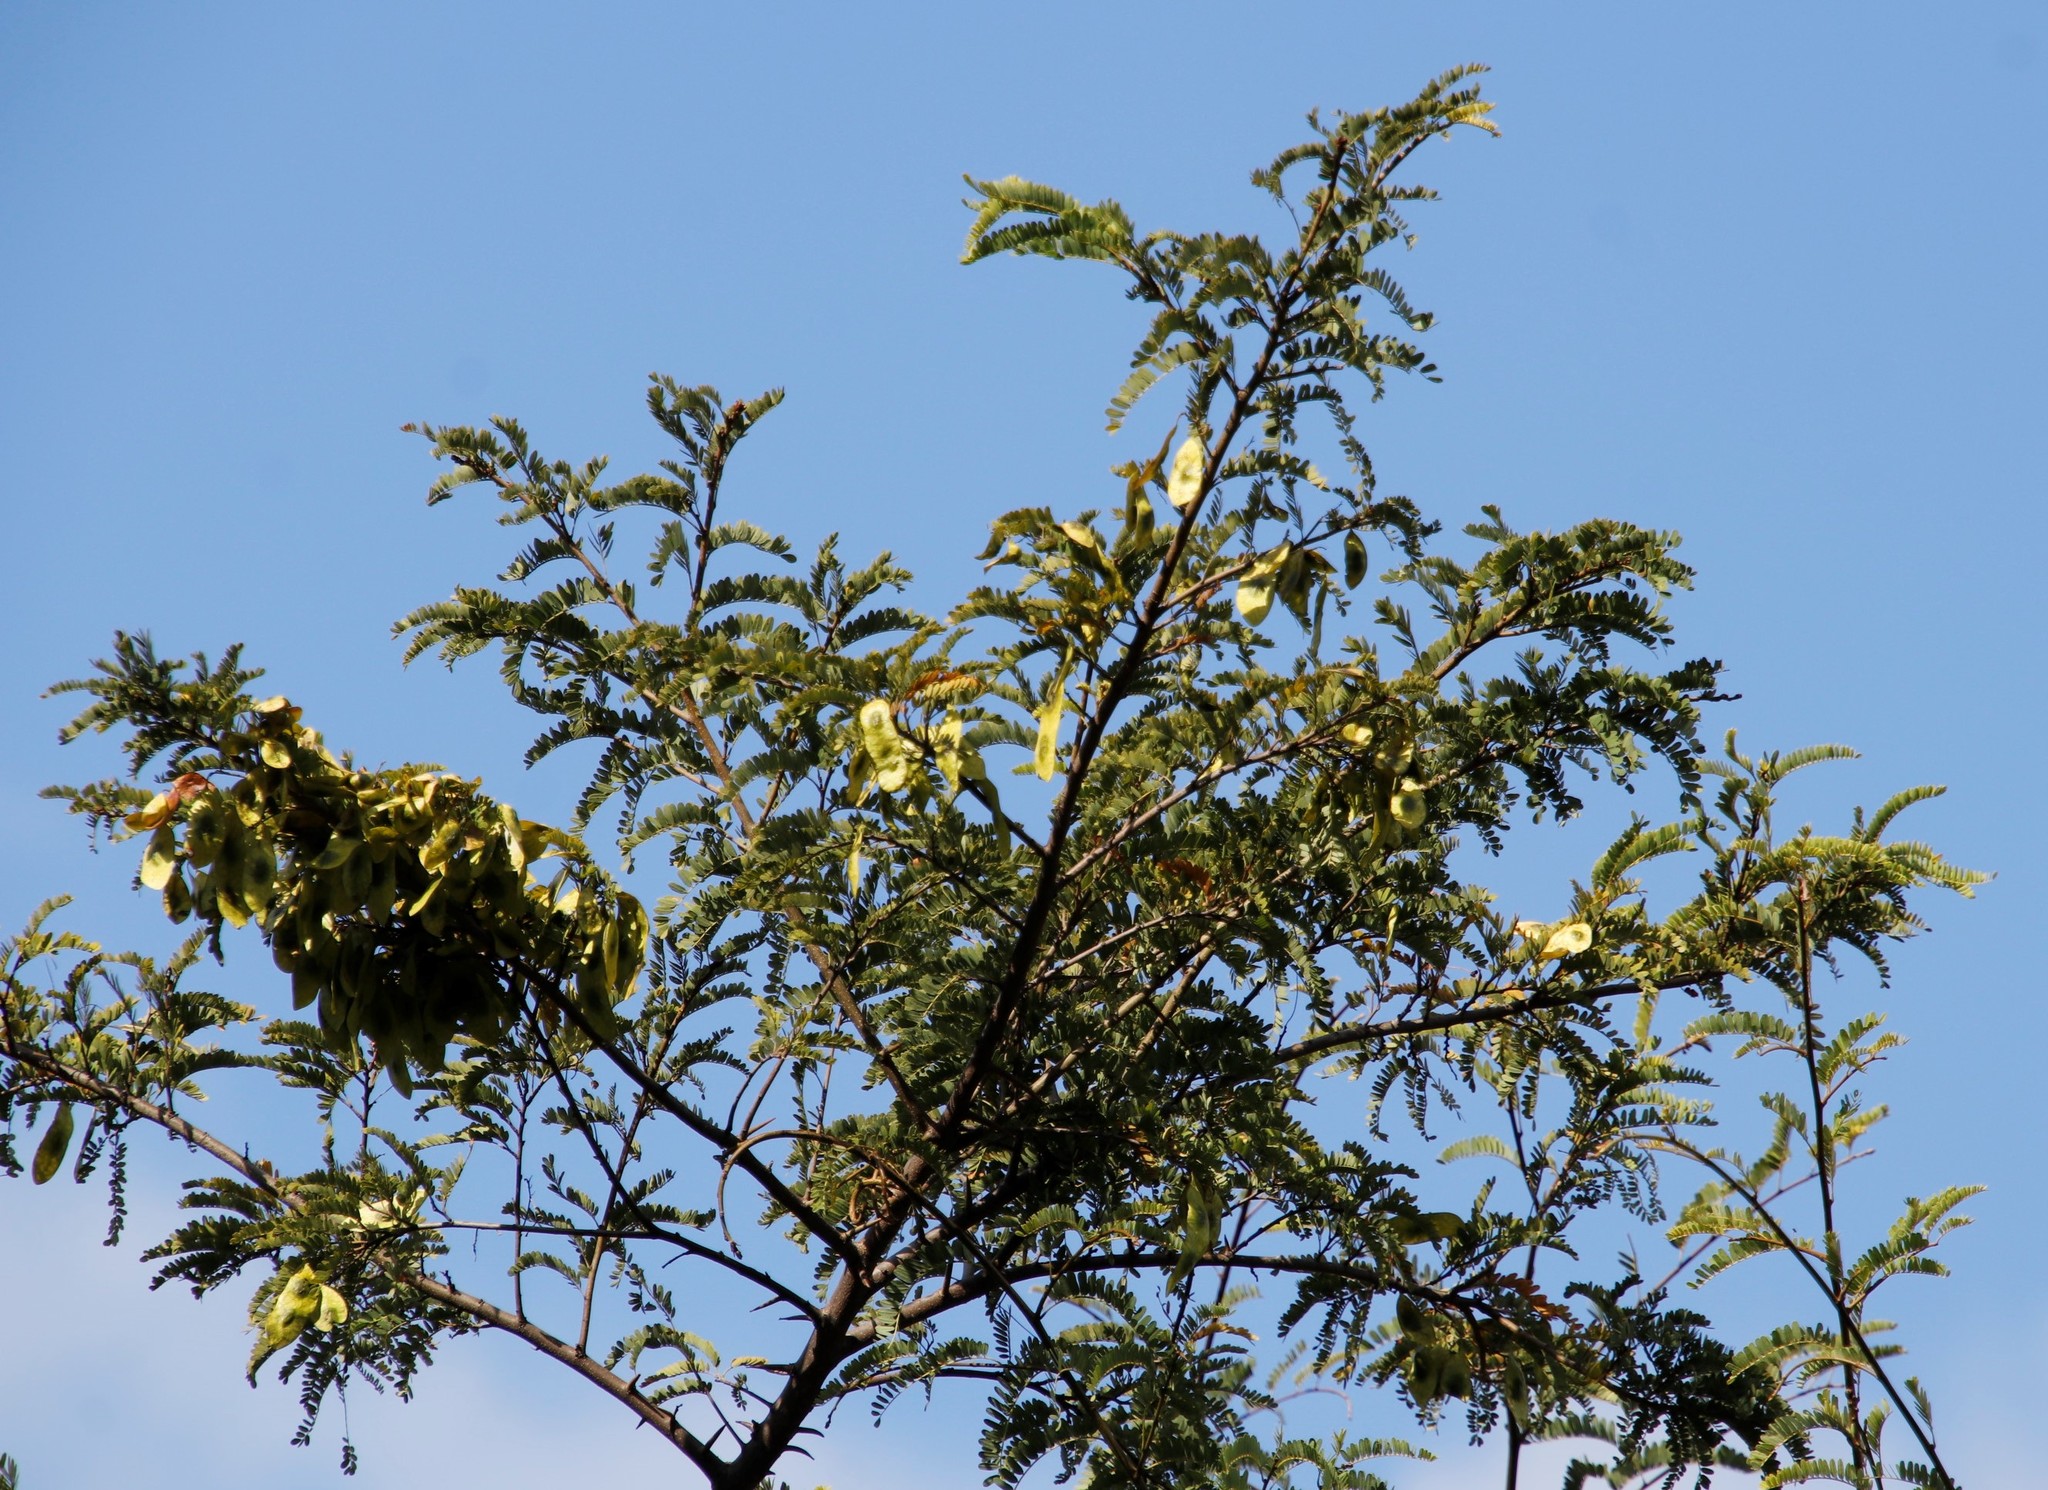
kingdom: Plantae
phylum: Tracheophyta
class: Magnoliopsida
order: Fabales
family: Fabaceae
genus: Dalbergia
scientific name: Dalbergia armata
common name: Hluhluwe climber
